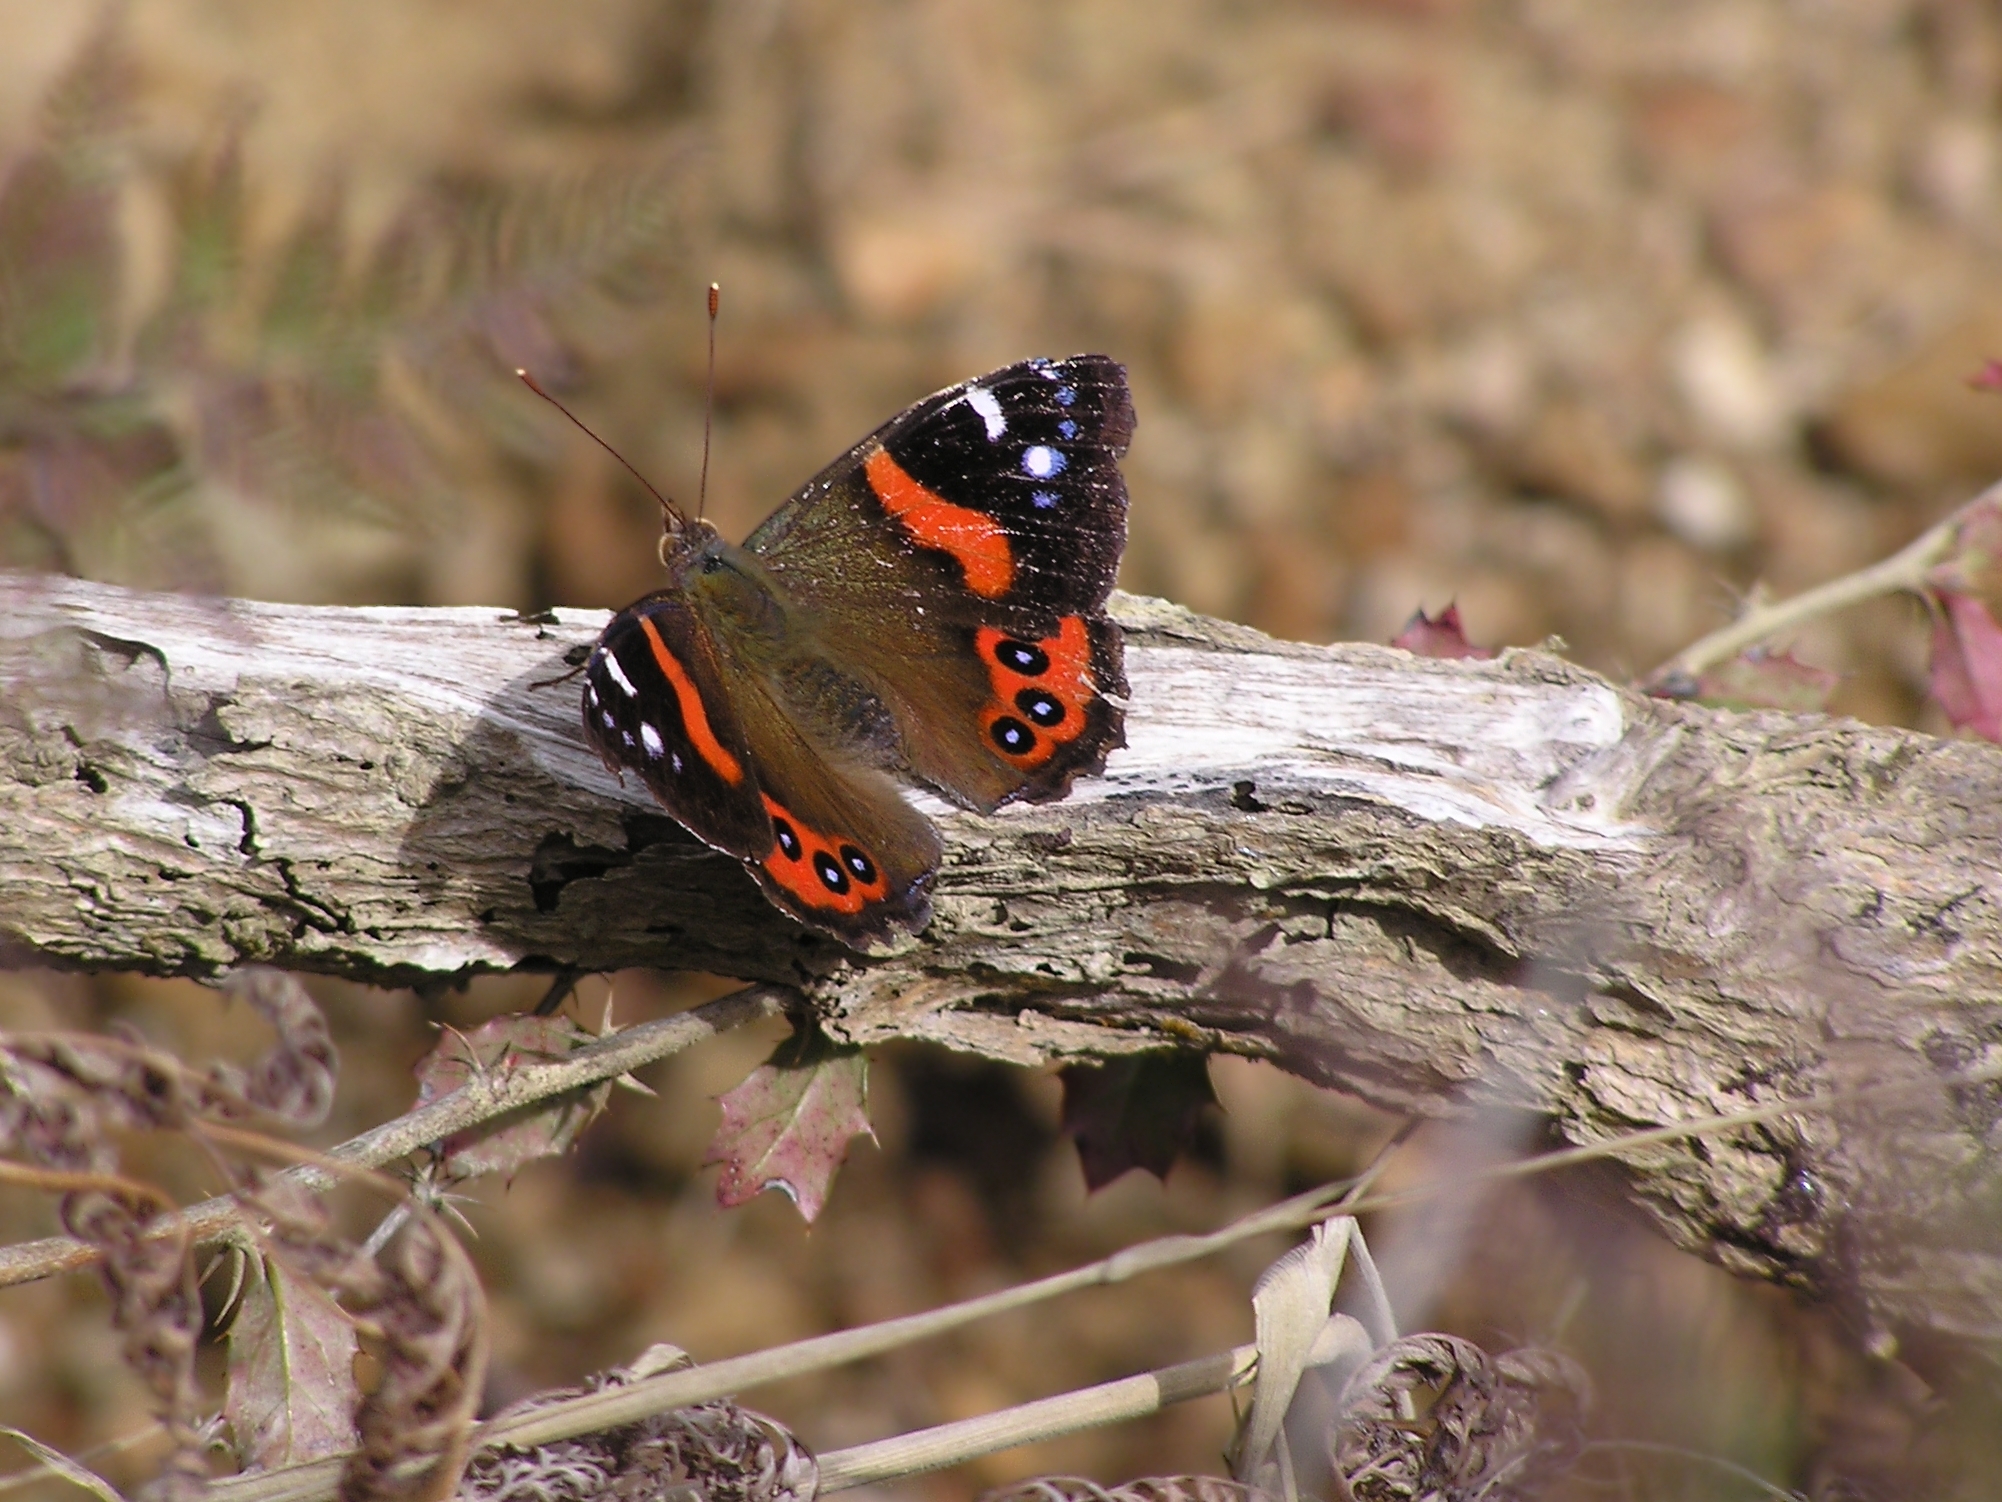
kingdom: Animalia
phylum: Arthropoda
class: Insecta
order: Lepidoptera
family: Nymphalidae
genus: Vanessa
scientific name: Vanessa gonerilla
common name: New zealand red admiral
